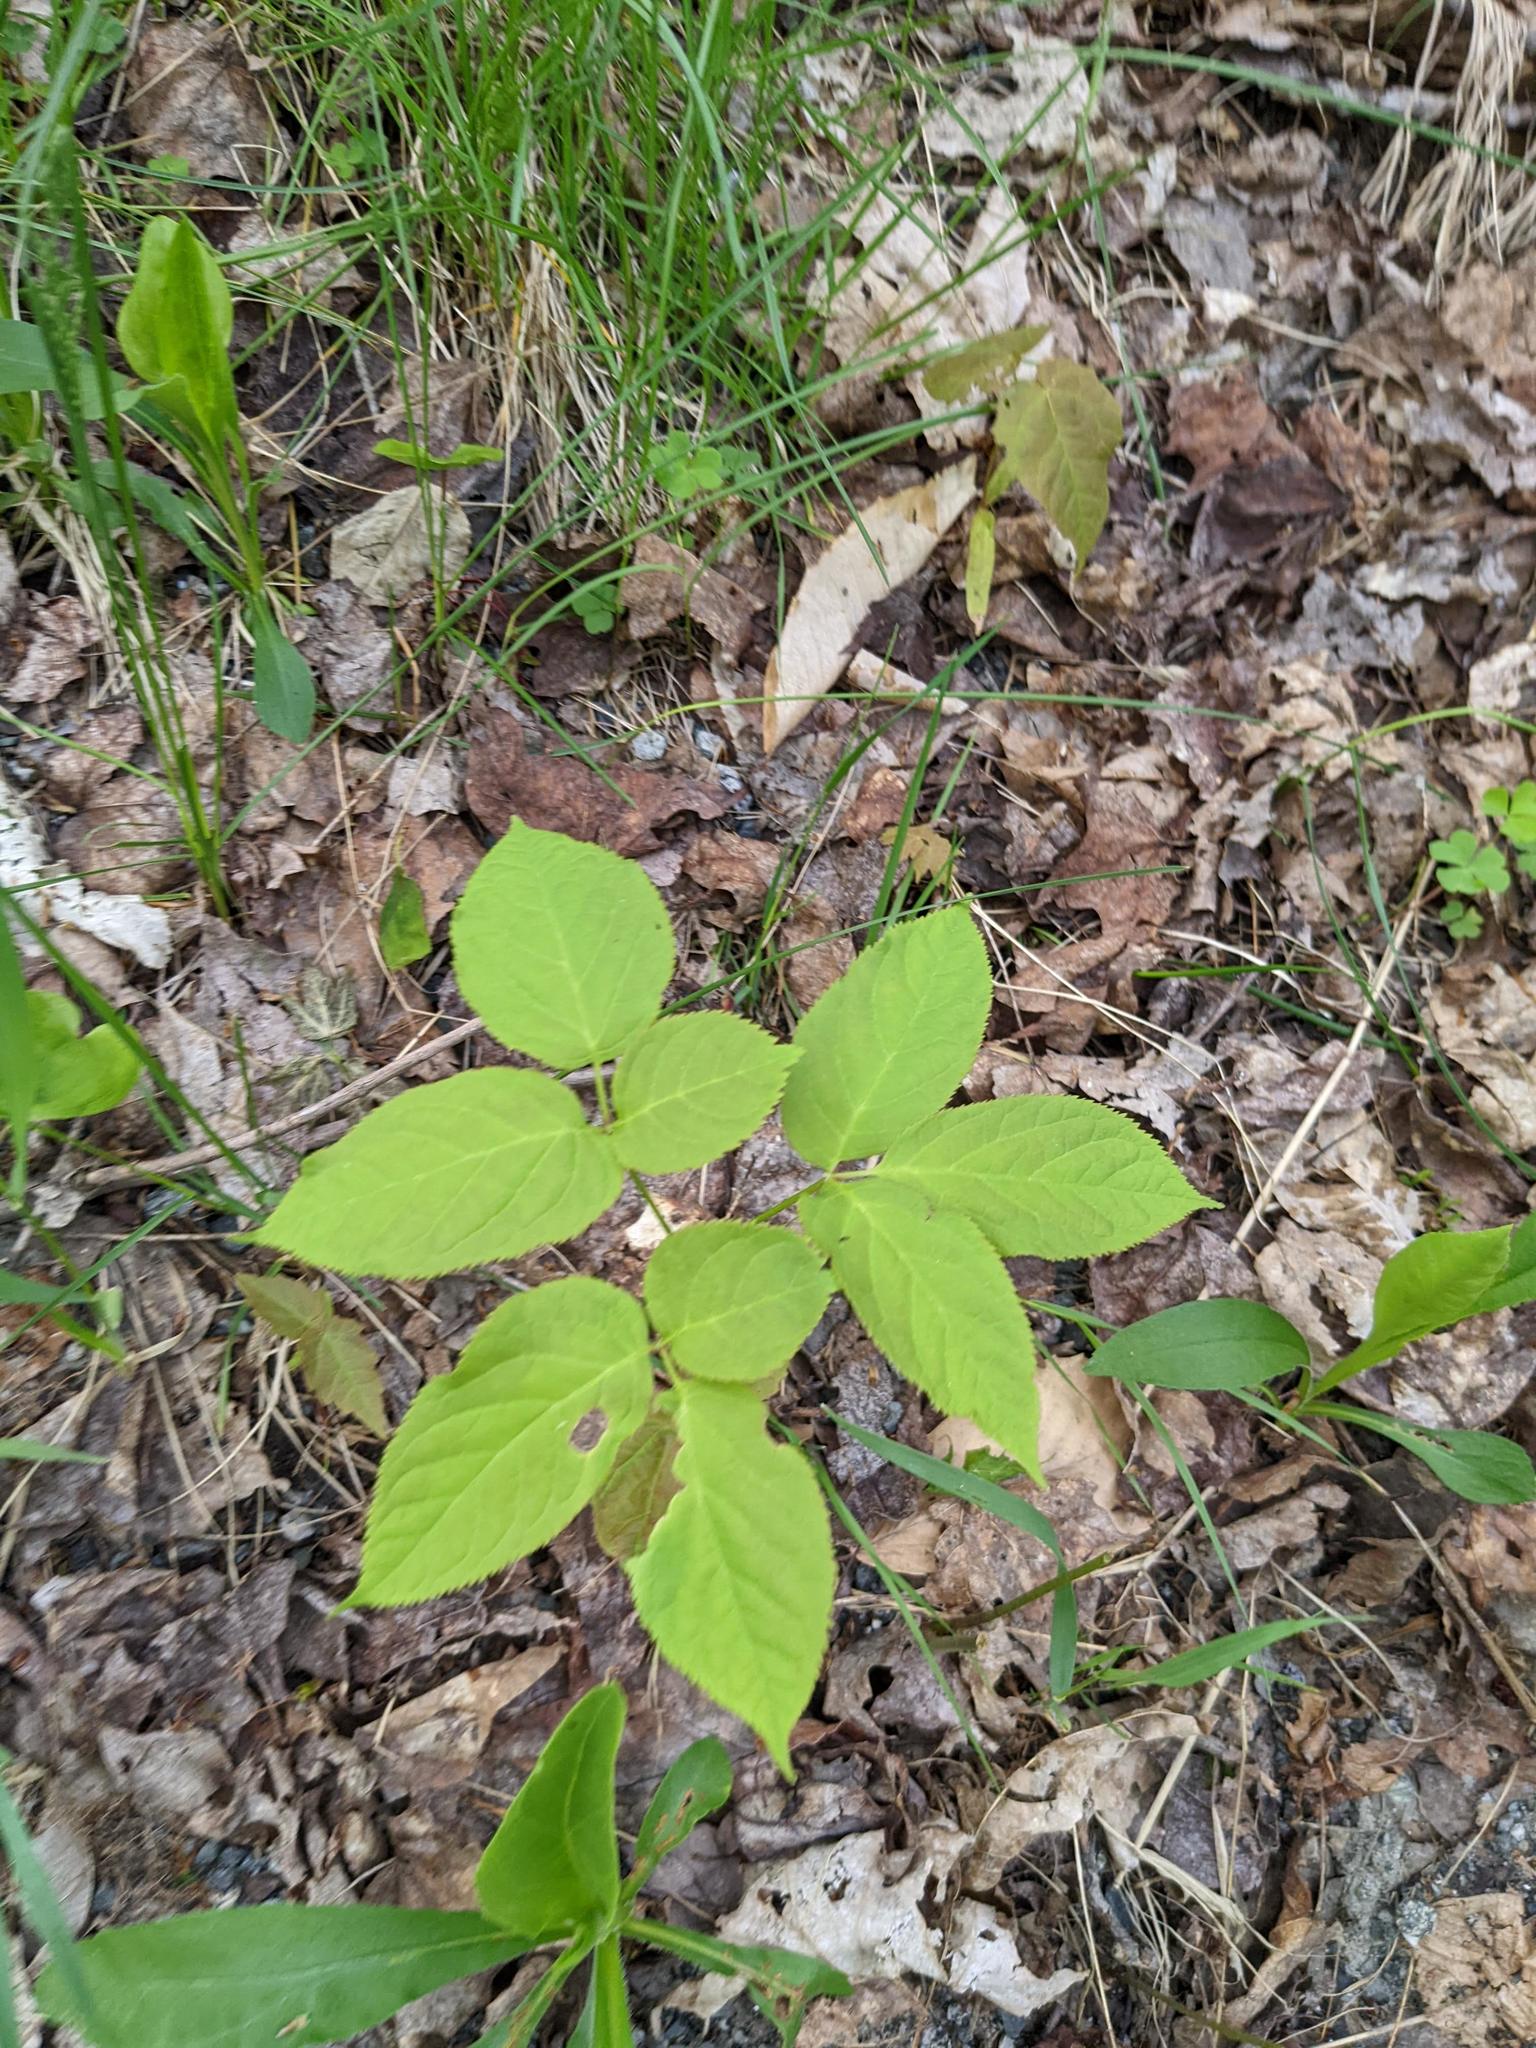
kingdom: Plantae
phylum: Tracheophyta
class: Magnoliopsida
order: Apiales
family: Araliaceae
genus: Aralia
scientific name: Aralia nudicaulis
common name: Wild sarsaparilla
